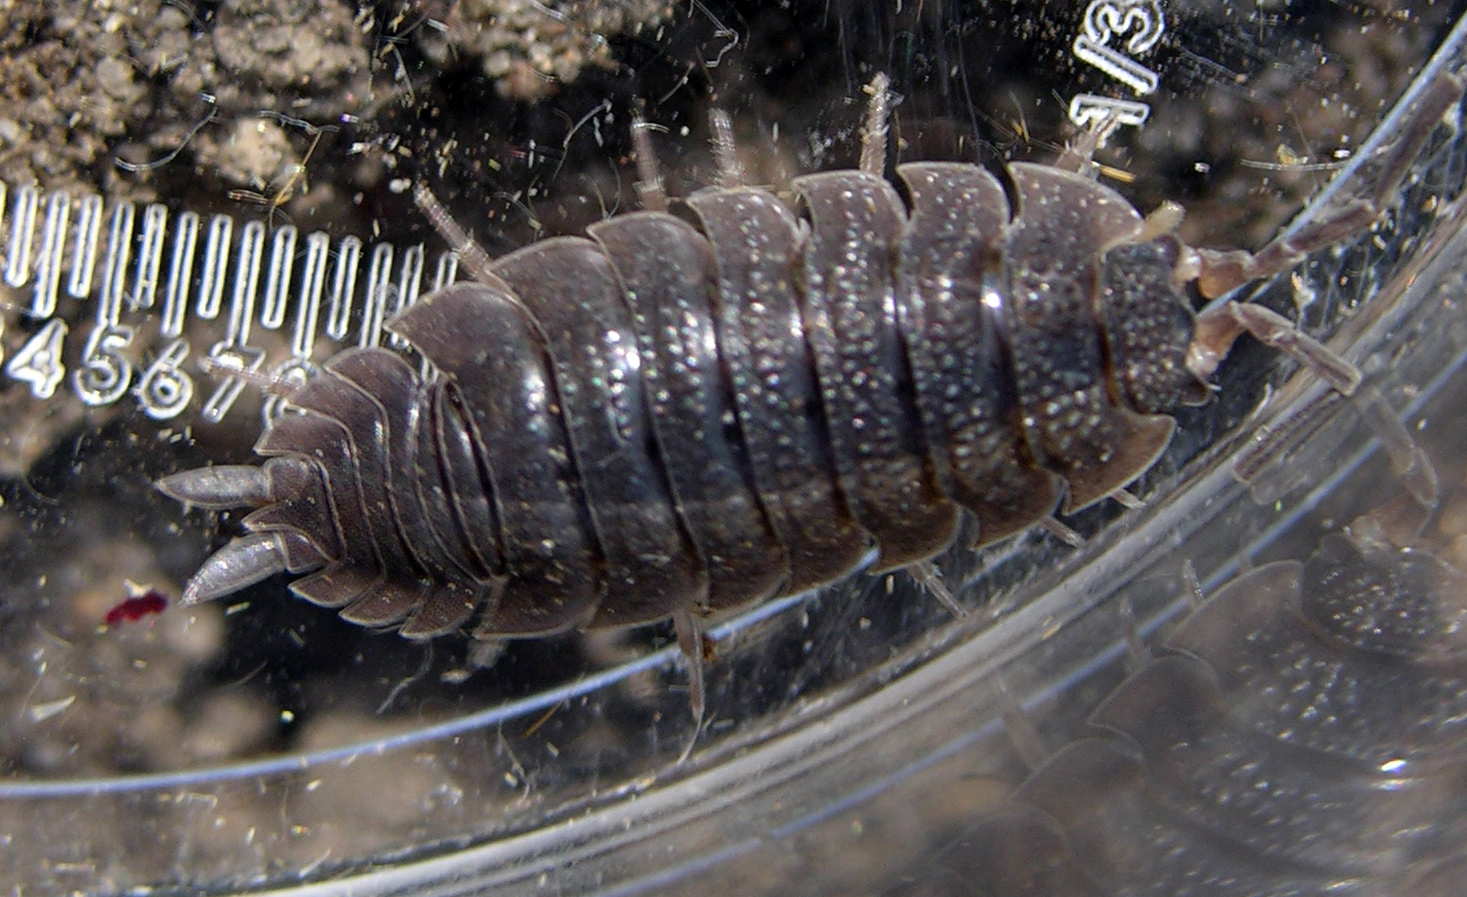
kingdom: Animalia
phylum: Arthropoda
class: Malacostraca
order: Isopoda
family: Porcellionidae
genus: Porcellio
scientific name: Porcellio scaber
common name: Common rough woodlouse
